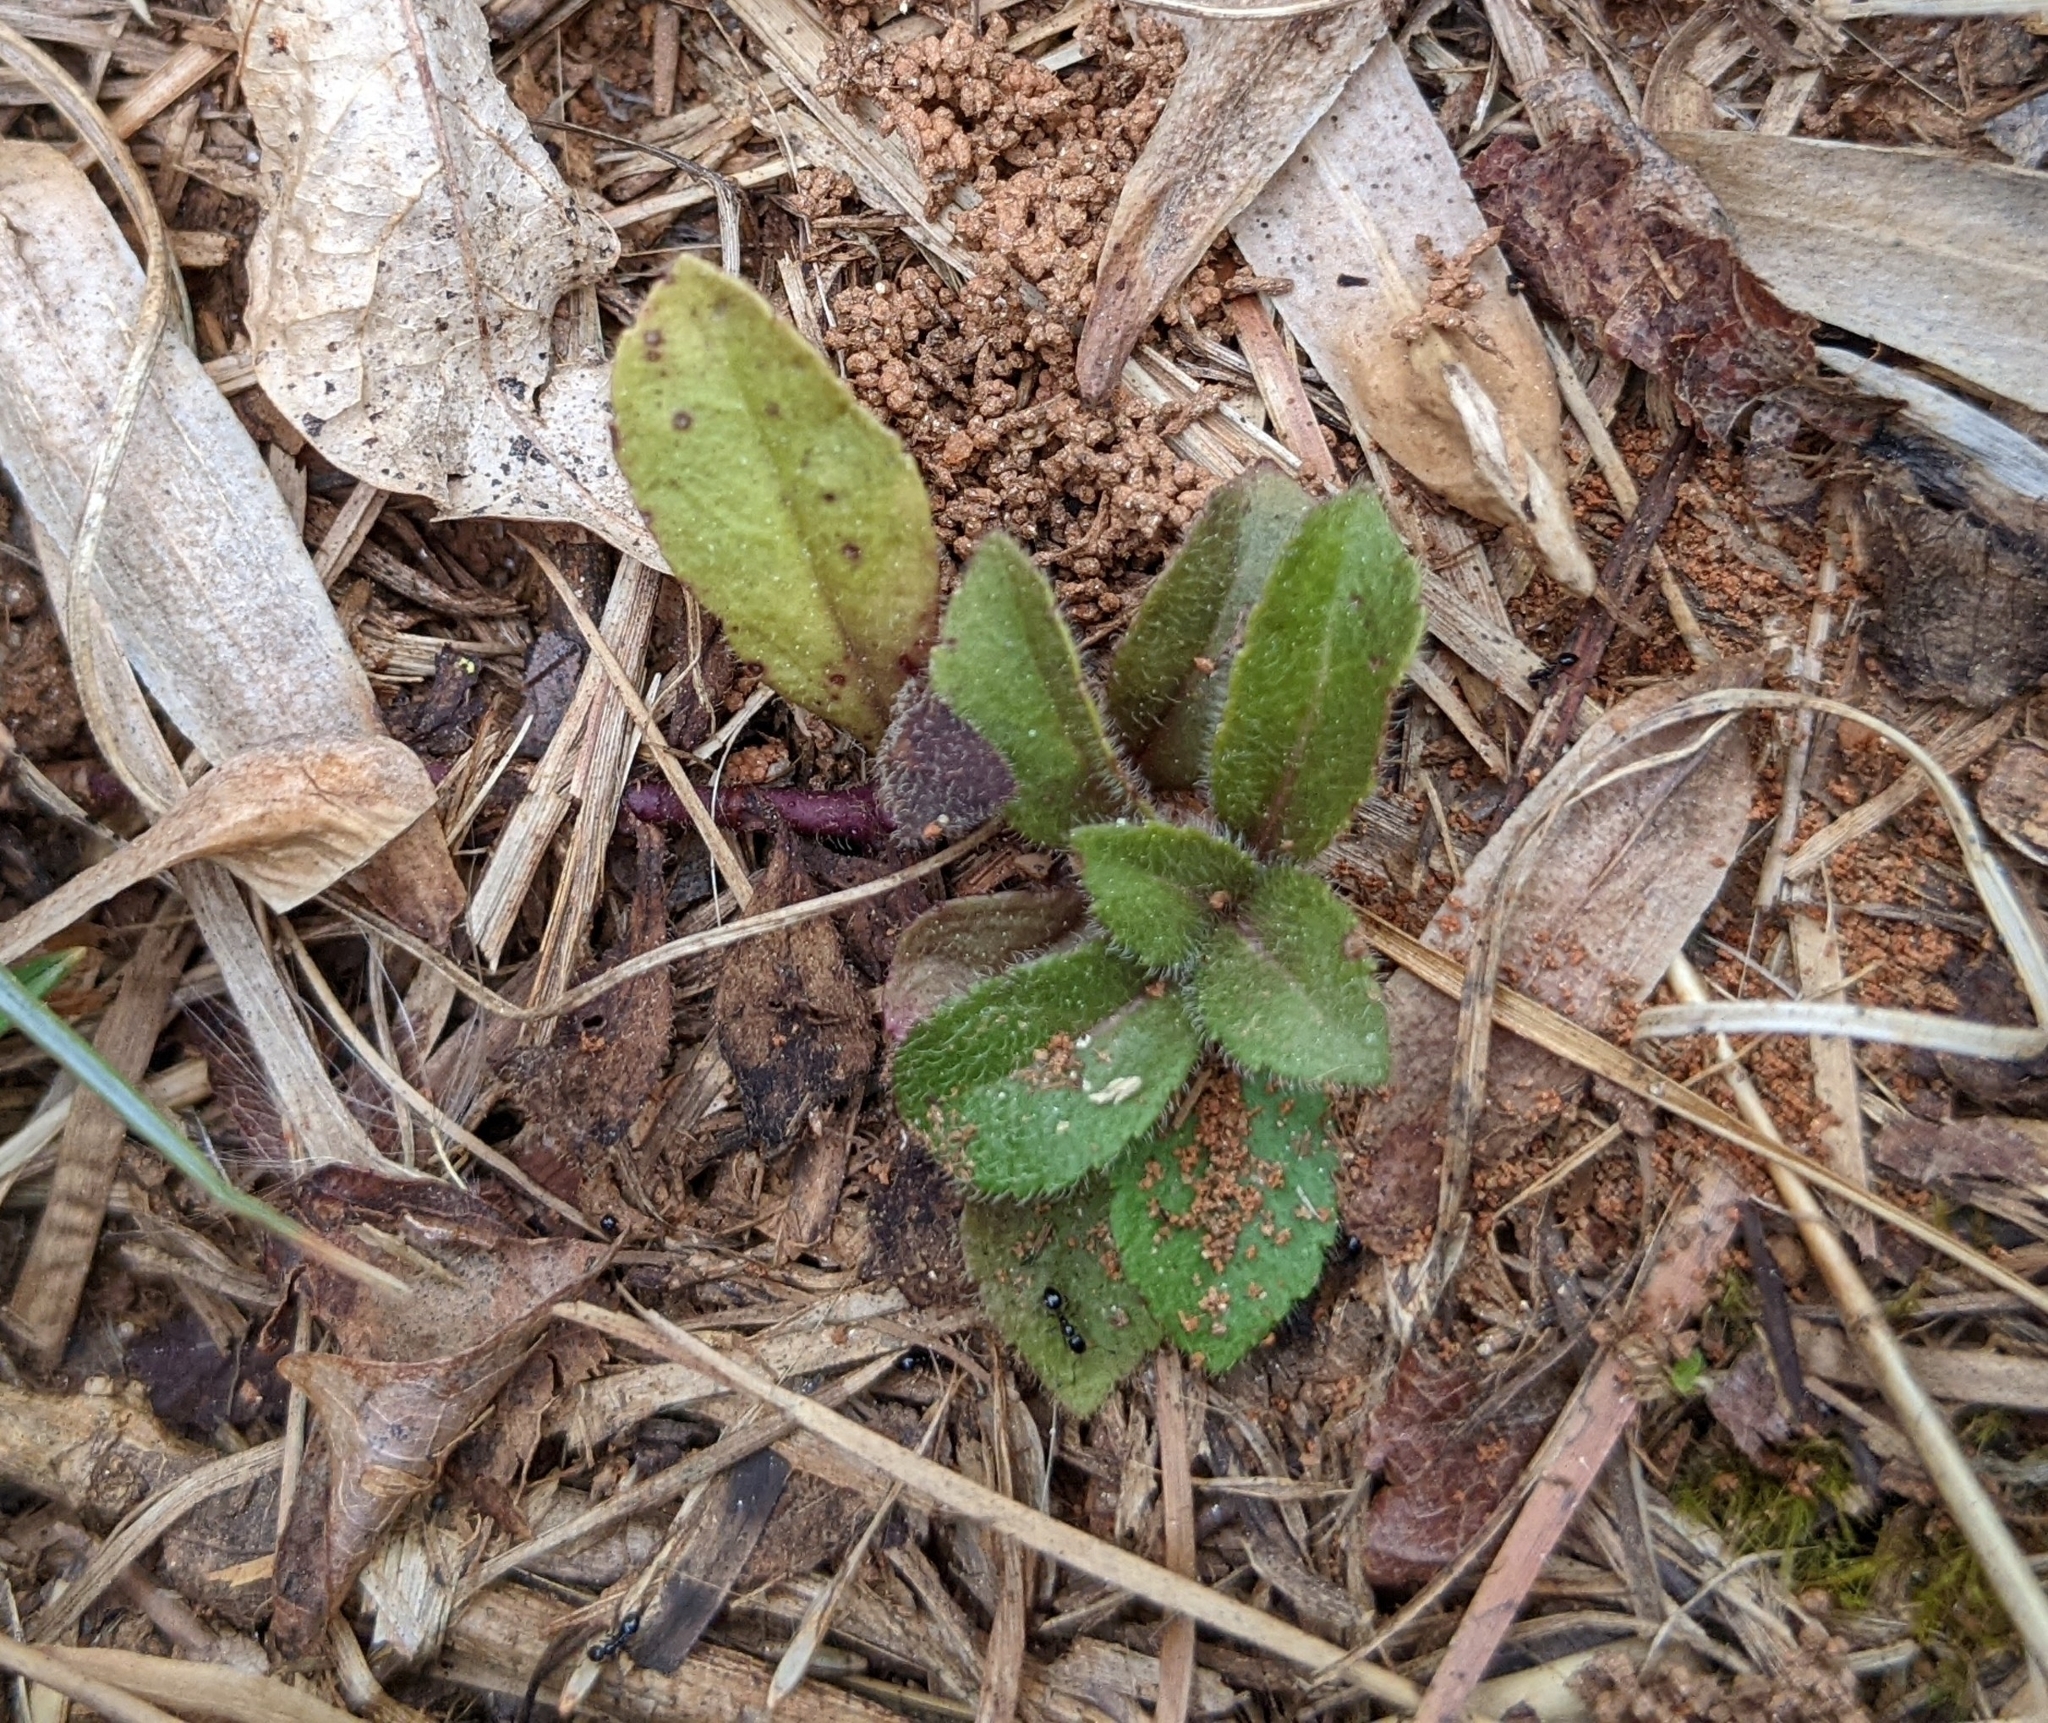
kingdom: Plantae
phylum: Tracheophyta
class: Magnoliopsida
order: Lamiales
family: Plantaginaceae
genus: Veronica
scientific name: Veronica officinalis
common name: Common speedwell
